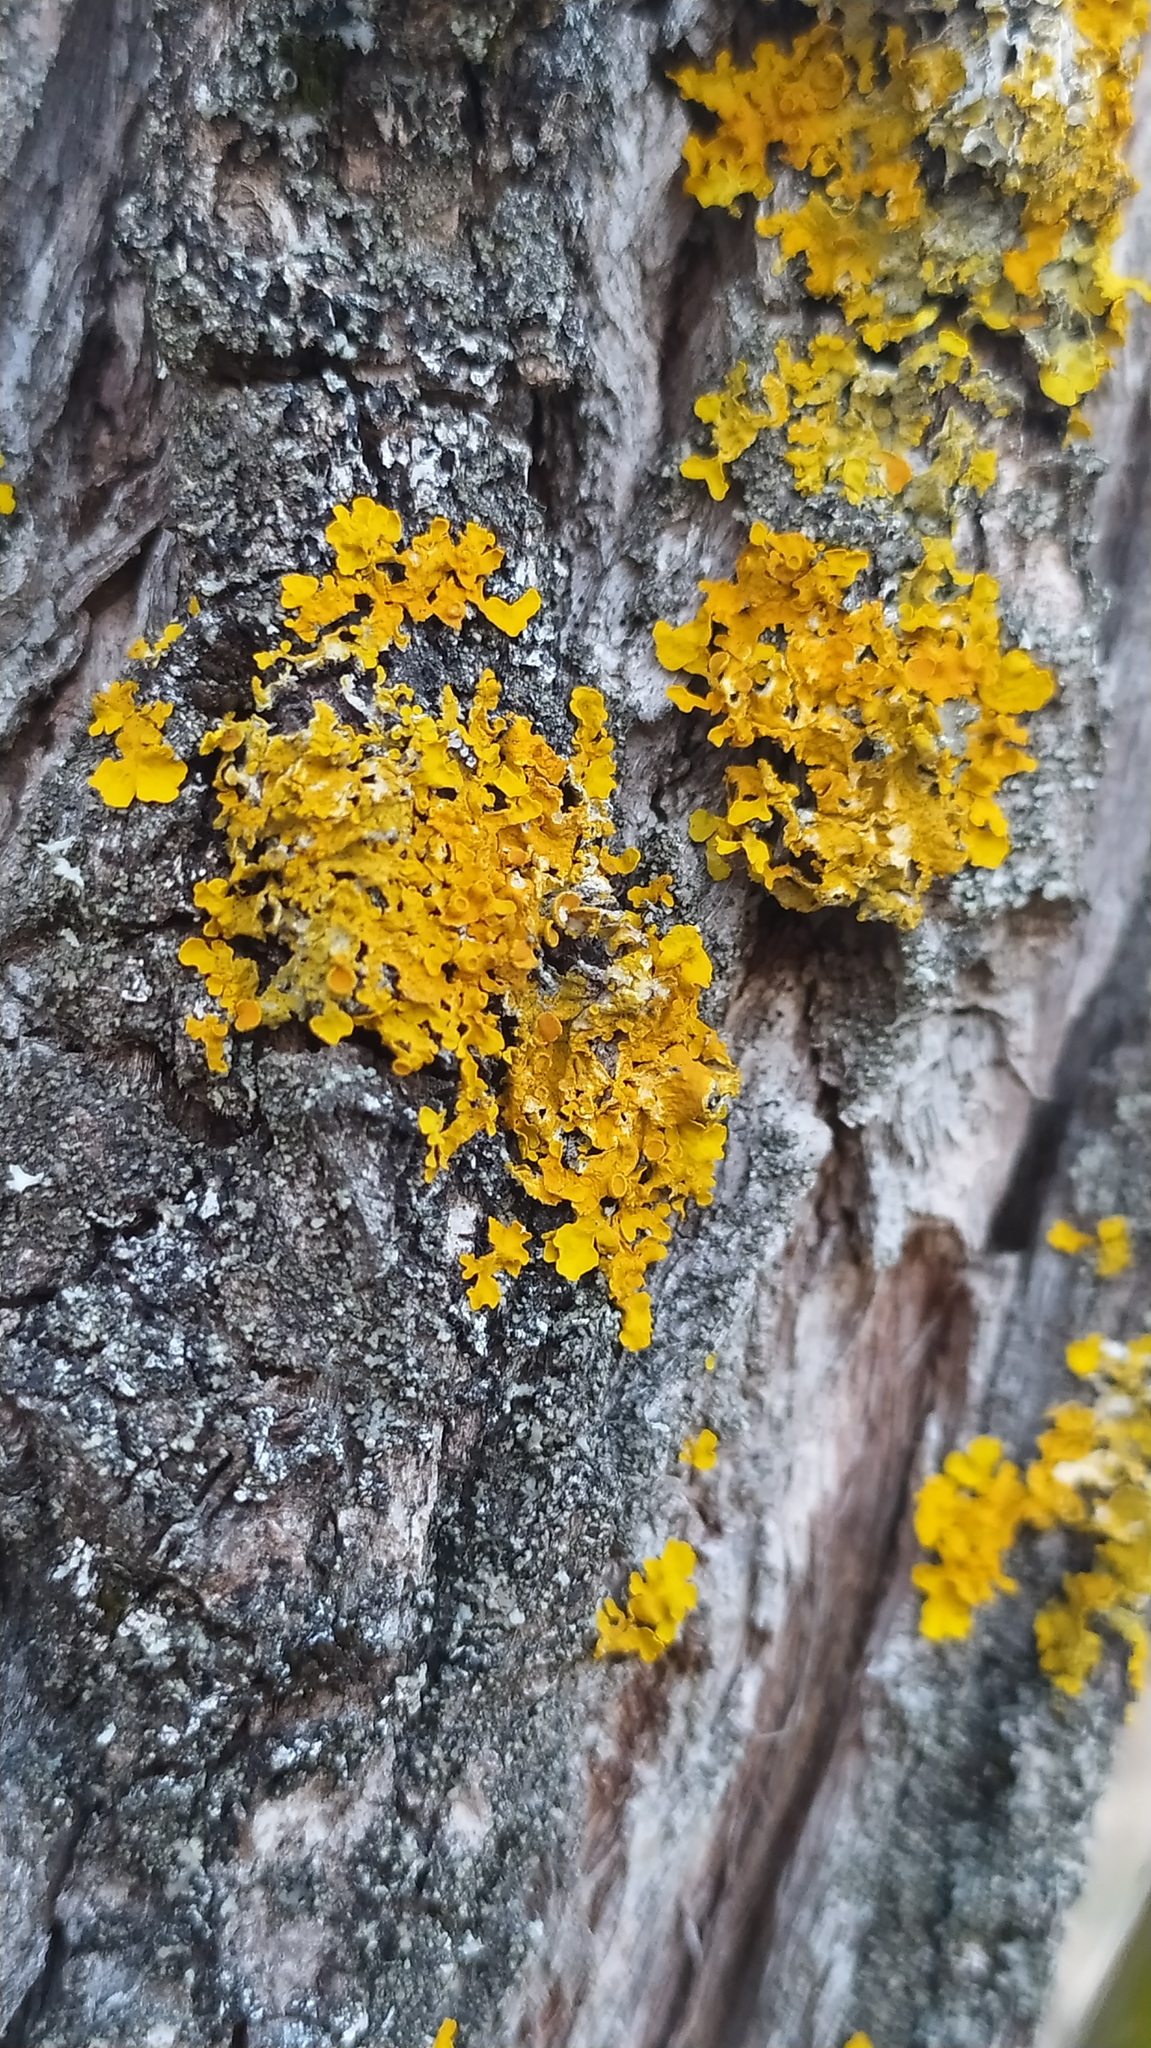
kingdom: Fungi
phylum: Ascomycota
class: Lecanoromycetes
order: Teloschistales
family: Teloschistaceae
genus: Xanthoria
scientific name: Xanthoria parietina
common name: Common orange lichen
